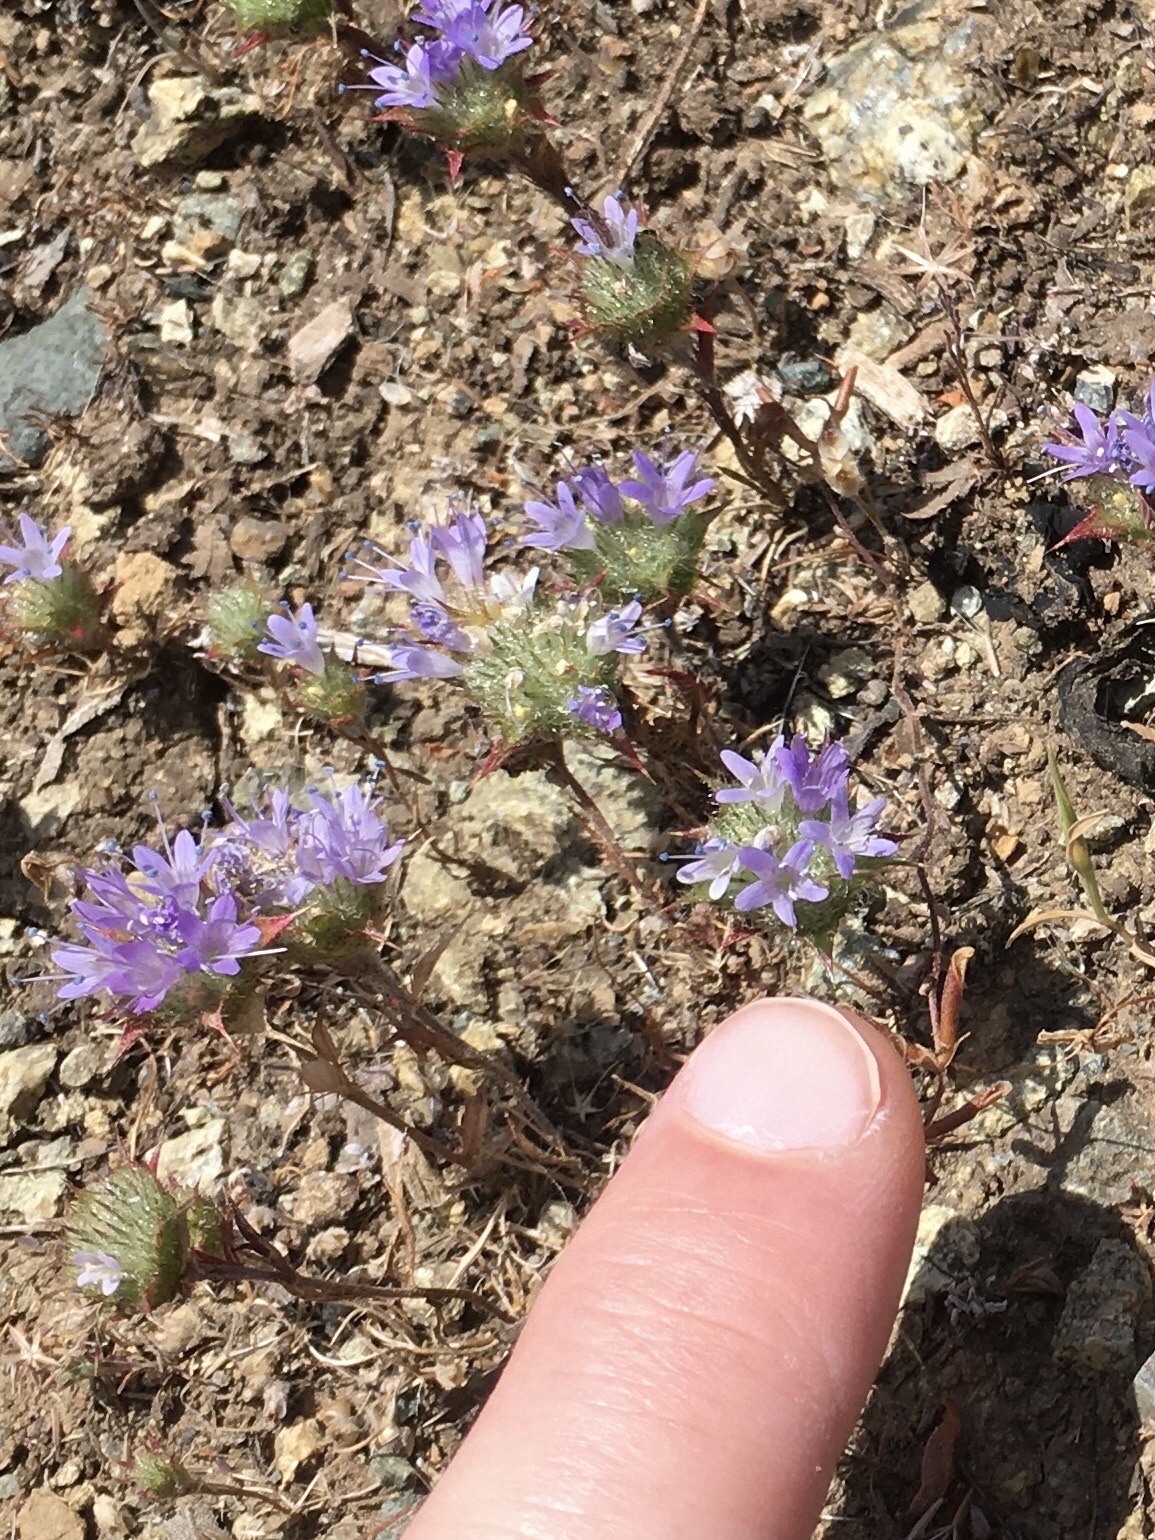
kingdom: Plantae
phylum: Tracheophyta
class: Magnoliopsida
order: Ericales
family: Polemoniaceae
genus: Navarretia
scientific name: Navarretia heterodoxa
